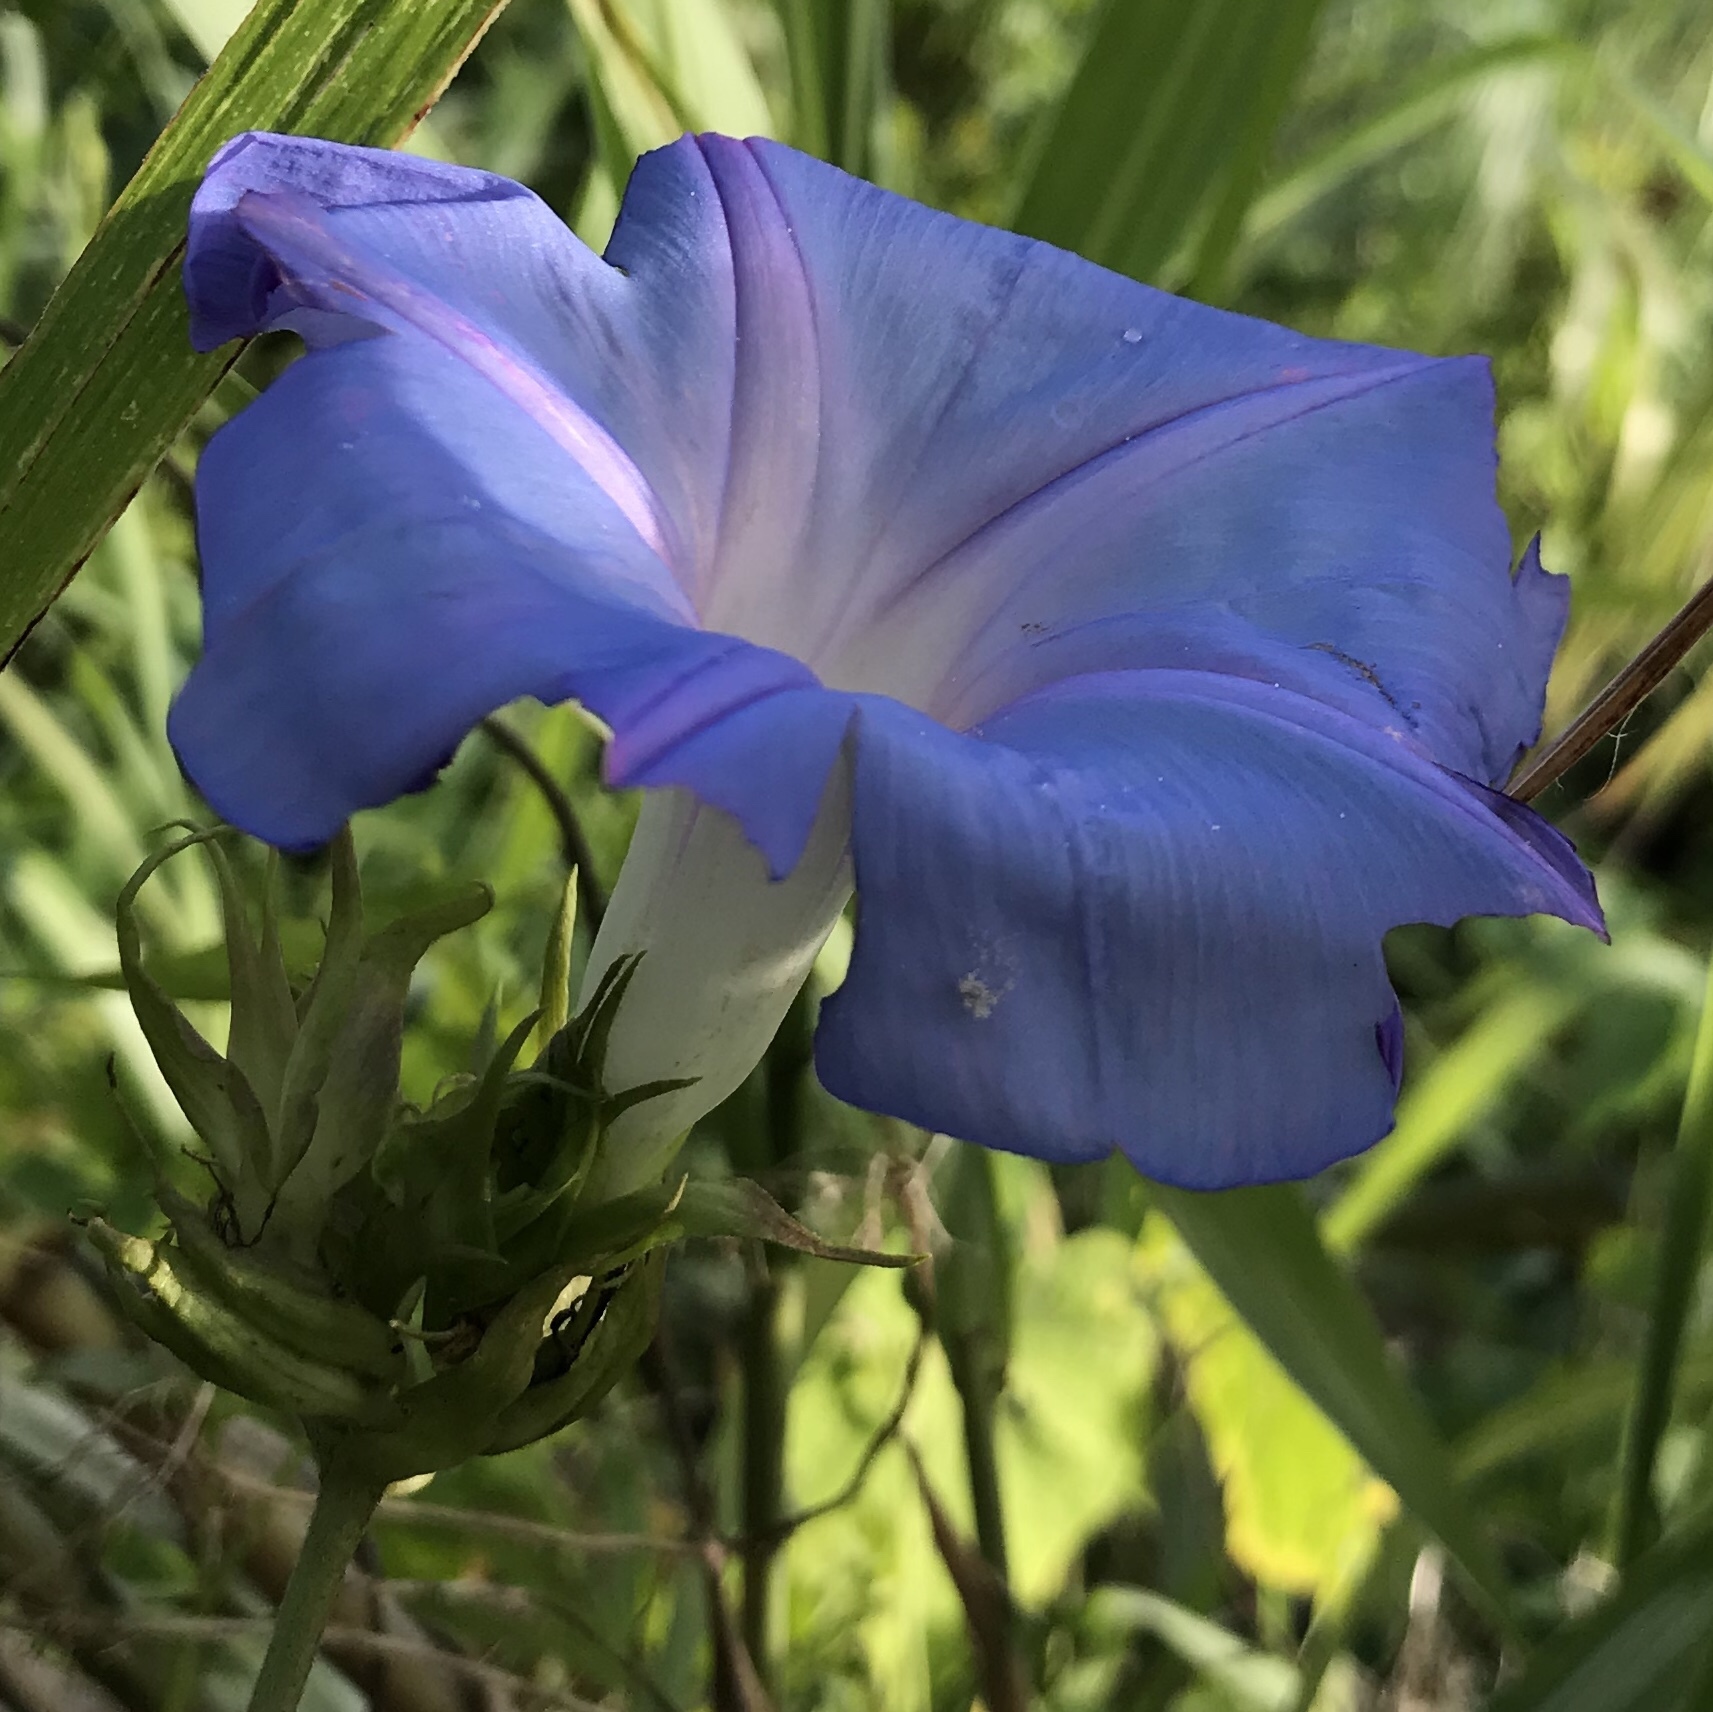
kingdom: Plantae
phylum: Tracheophyta
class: Magnoliopsida
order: Solanales
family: Convolvulaceae
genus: Ipomoea
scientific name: Ipomoea indica
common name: Blue dawnflower
